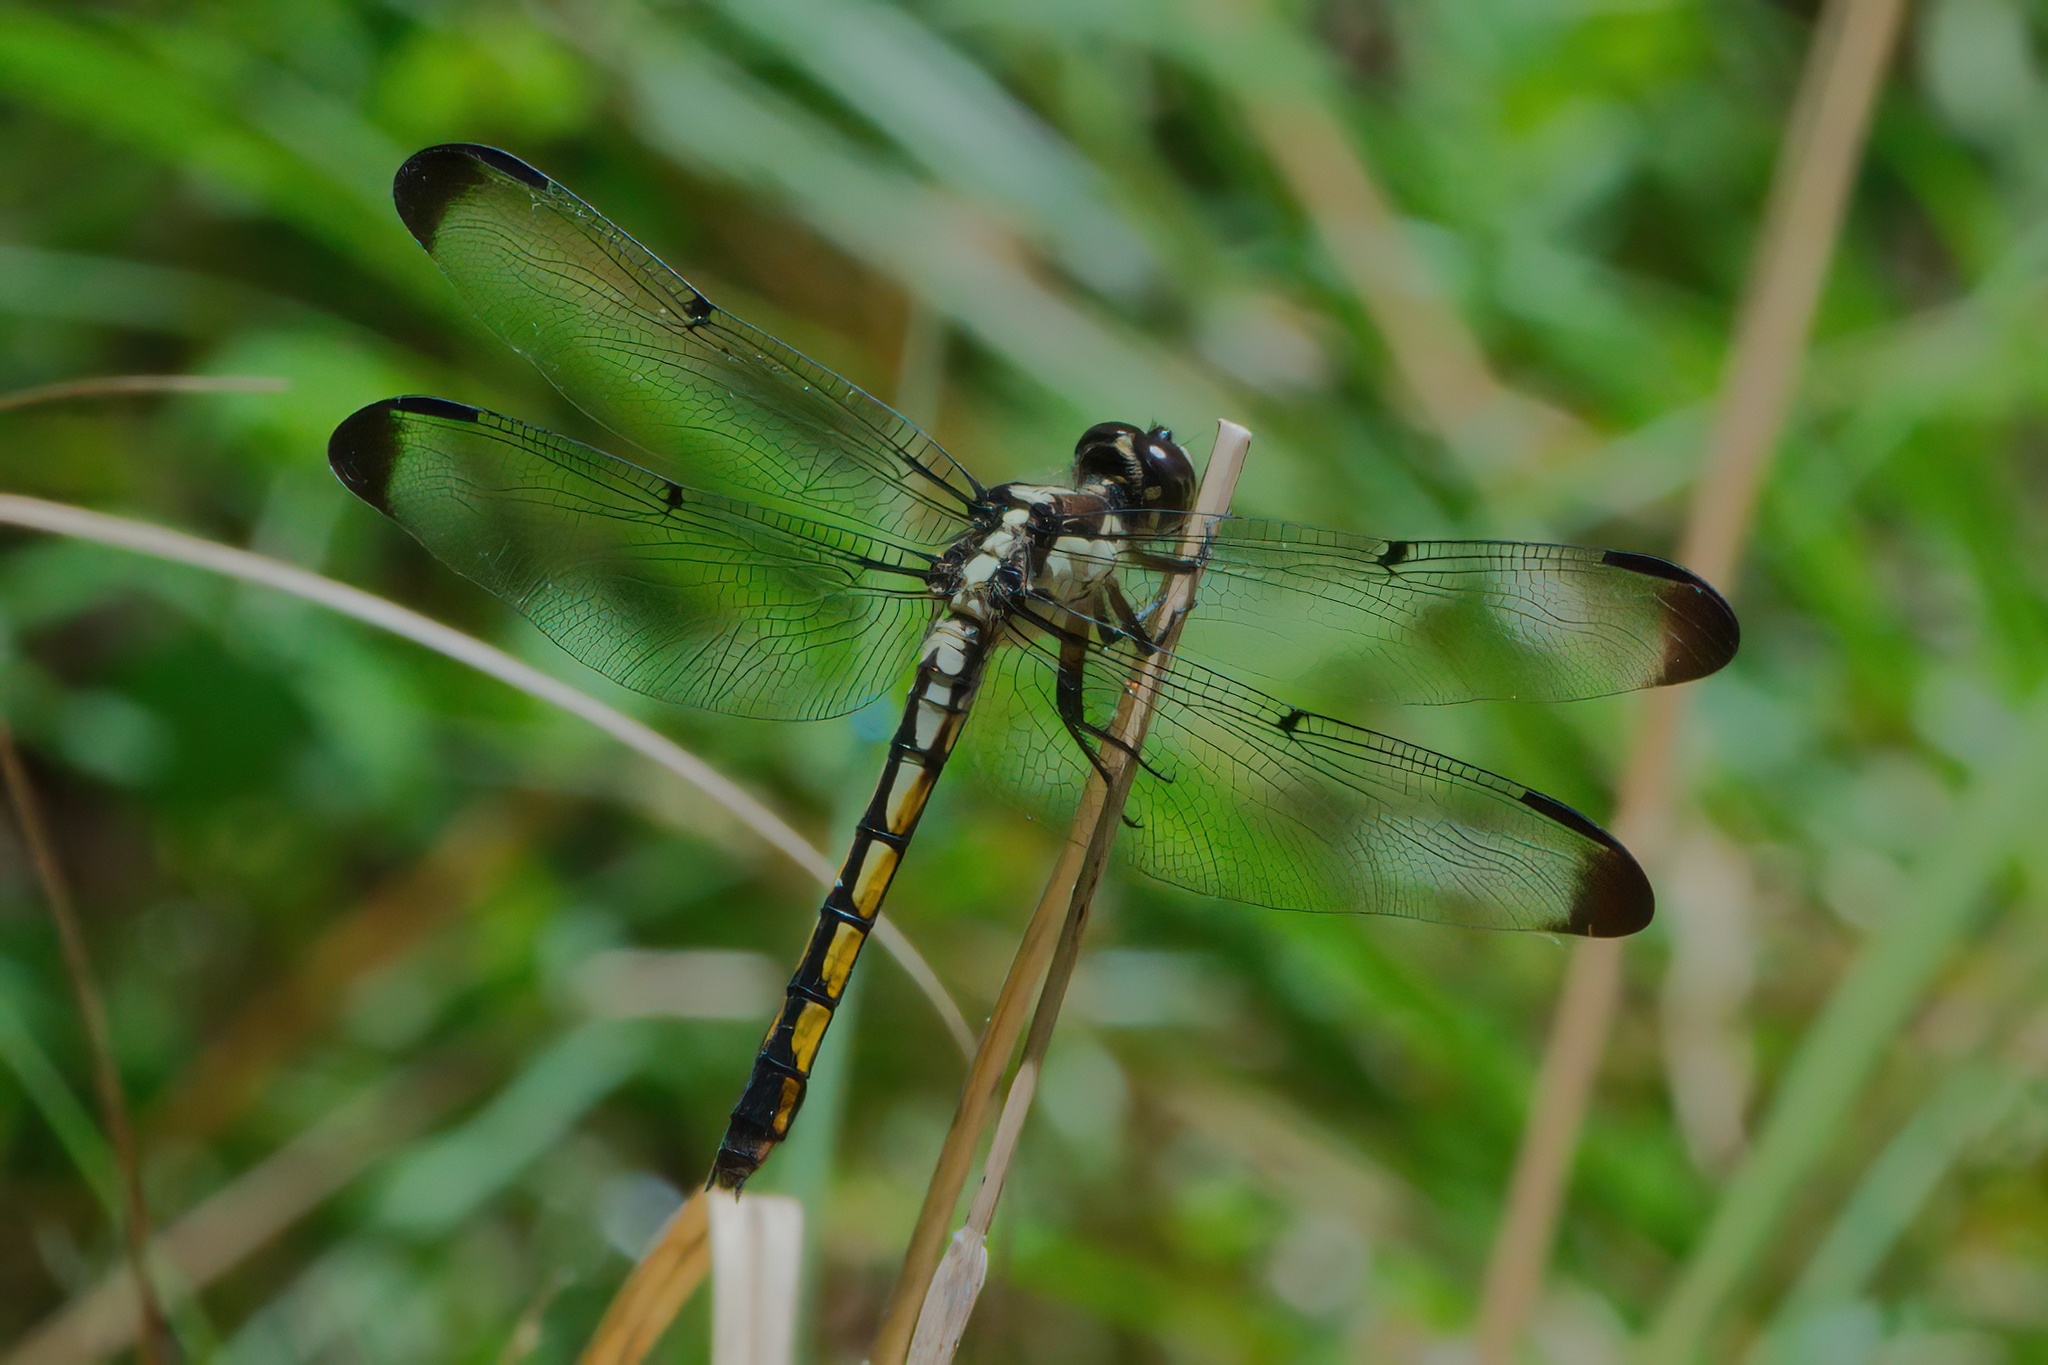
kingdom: Animalia
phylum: Arthropoda
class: Insecta
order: Odonata
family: Libellulidae
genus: Libellula
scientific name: Libellula vibrans
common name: Great blue skimmer
